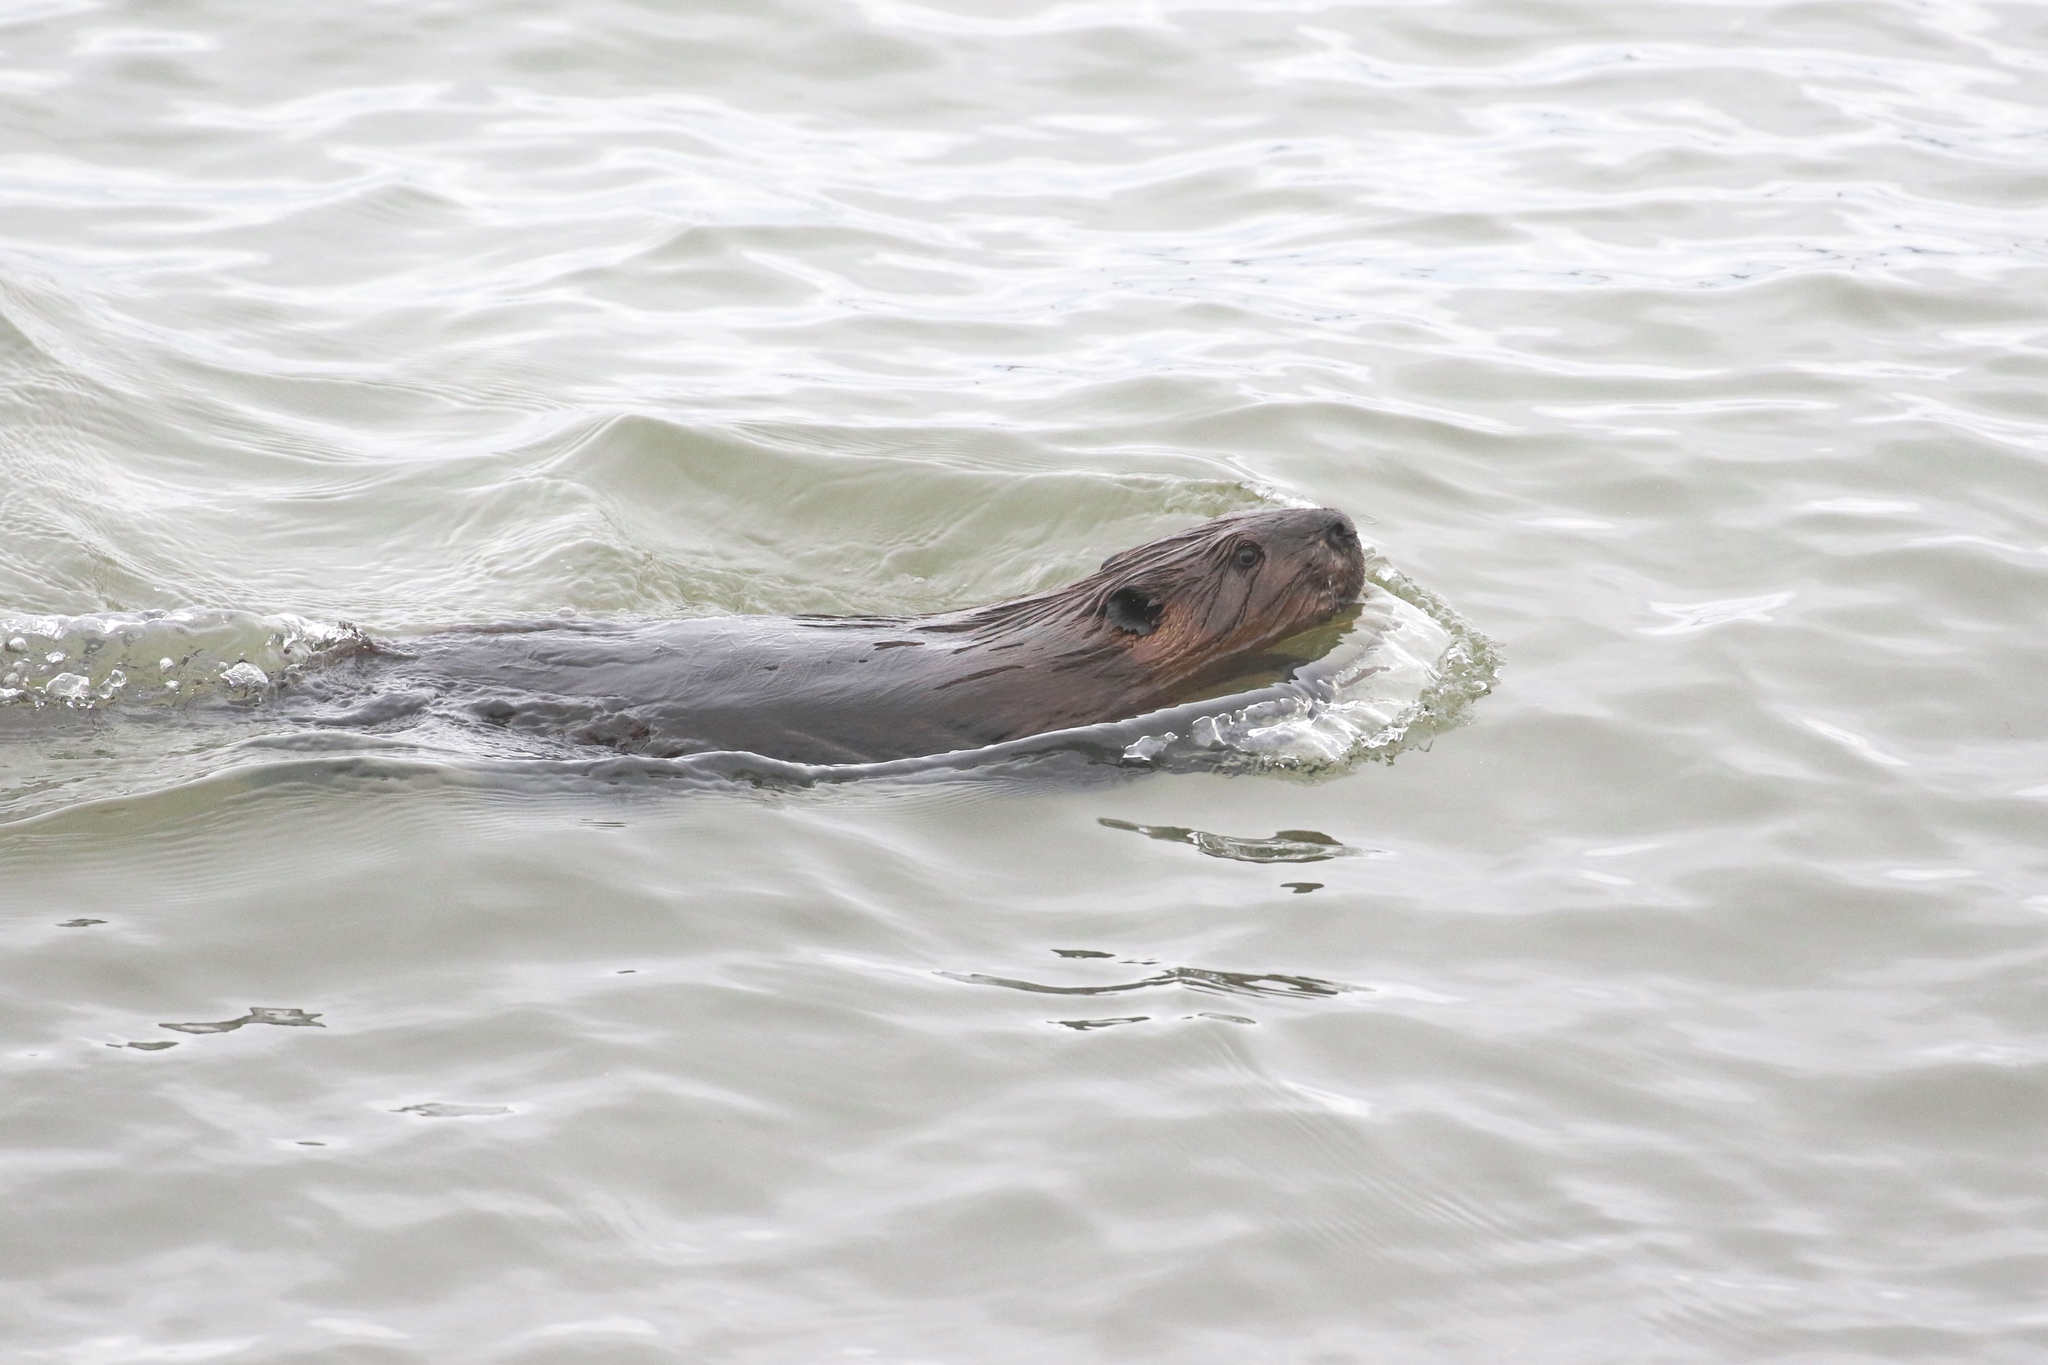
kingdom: Animalia
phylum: Chordata
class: Mammalia
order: Rodentia
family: Castoridae
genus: Castor
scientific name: Castor canadensis
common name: American beaver
